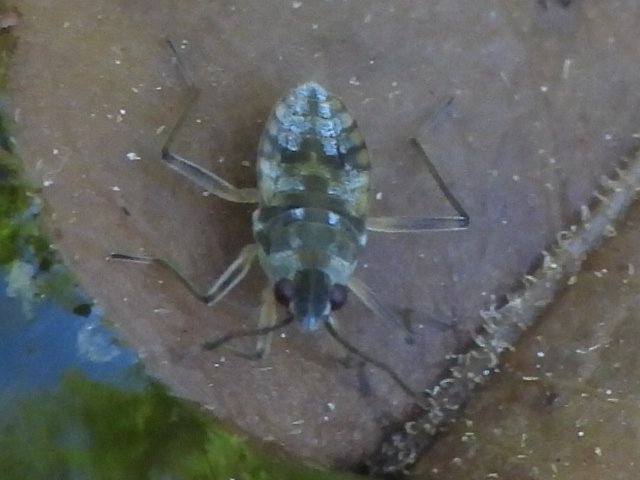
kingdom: Animalia
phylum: Arthropoda
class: Insecta
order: Hemiptera
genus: Kirkaldya
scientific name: Kirkaldya
